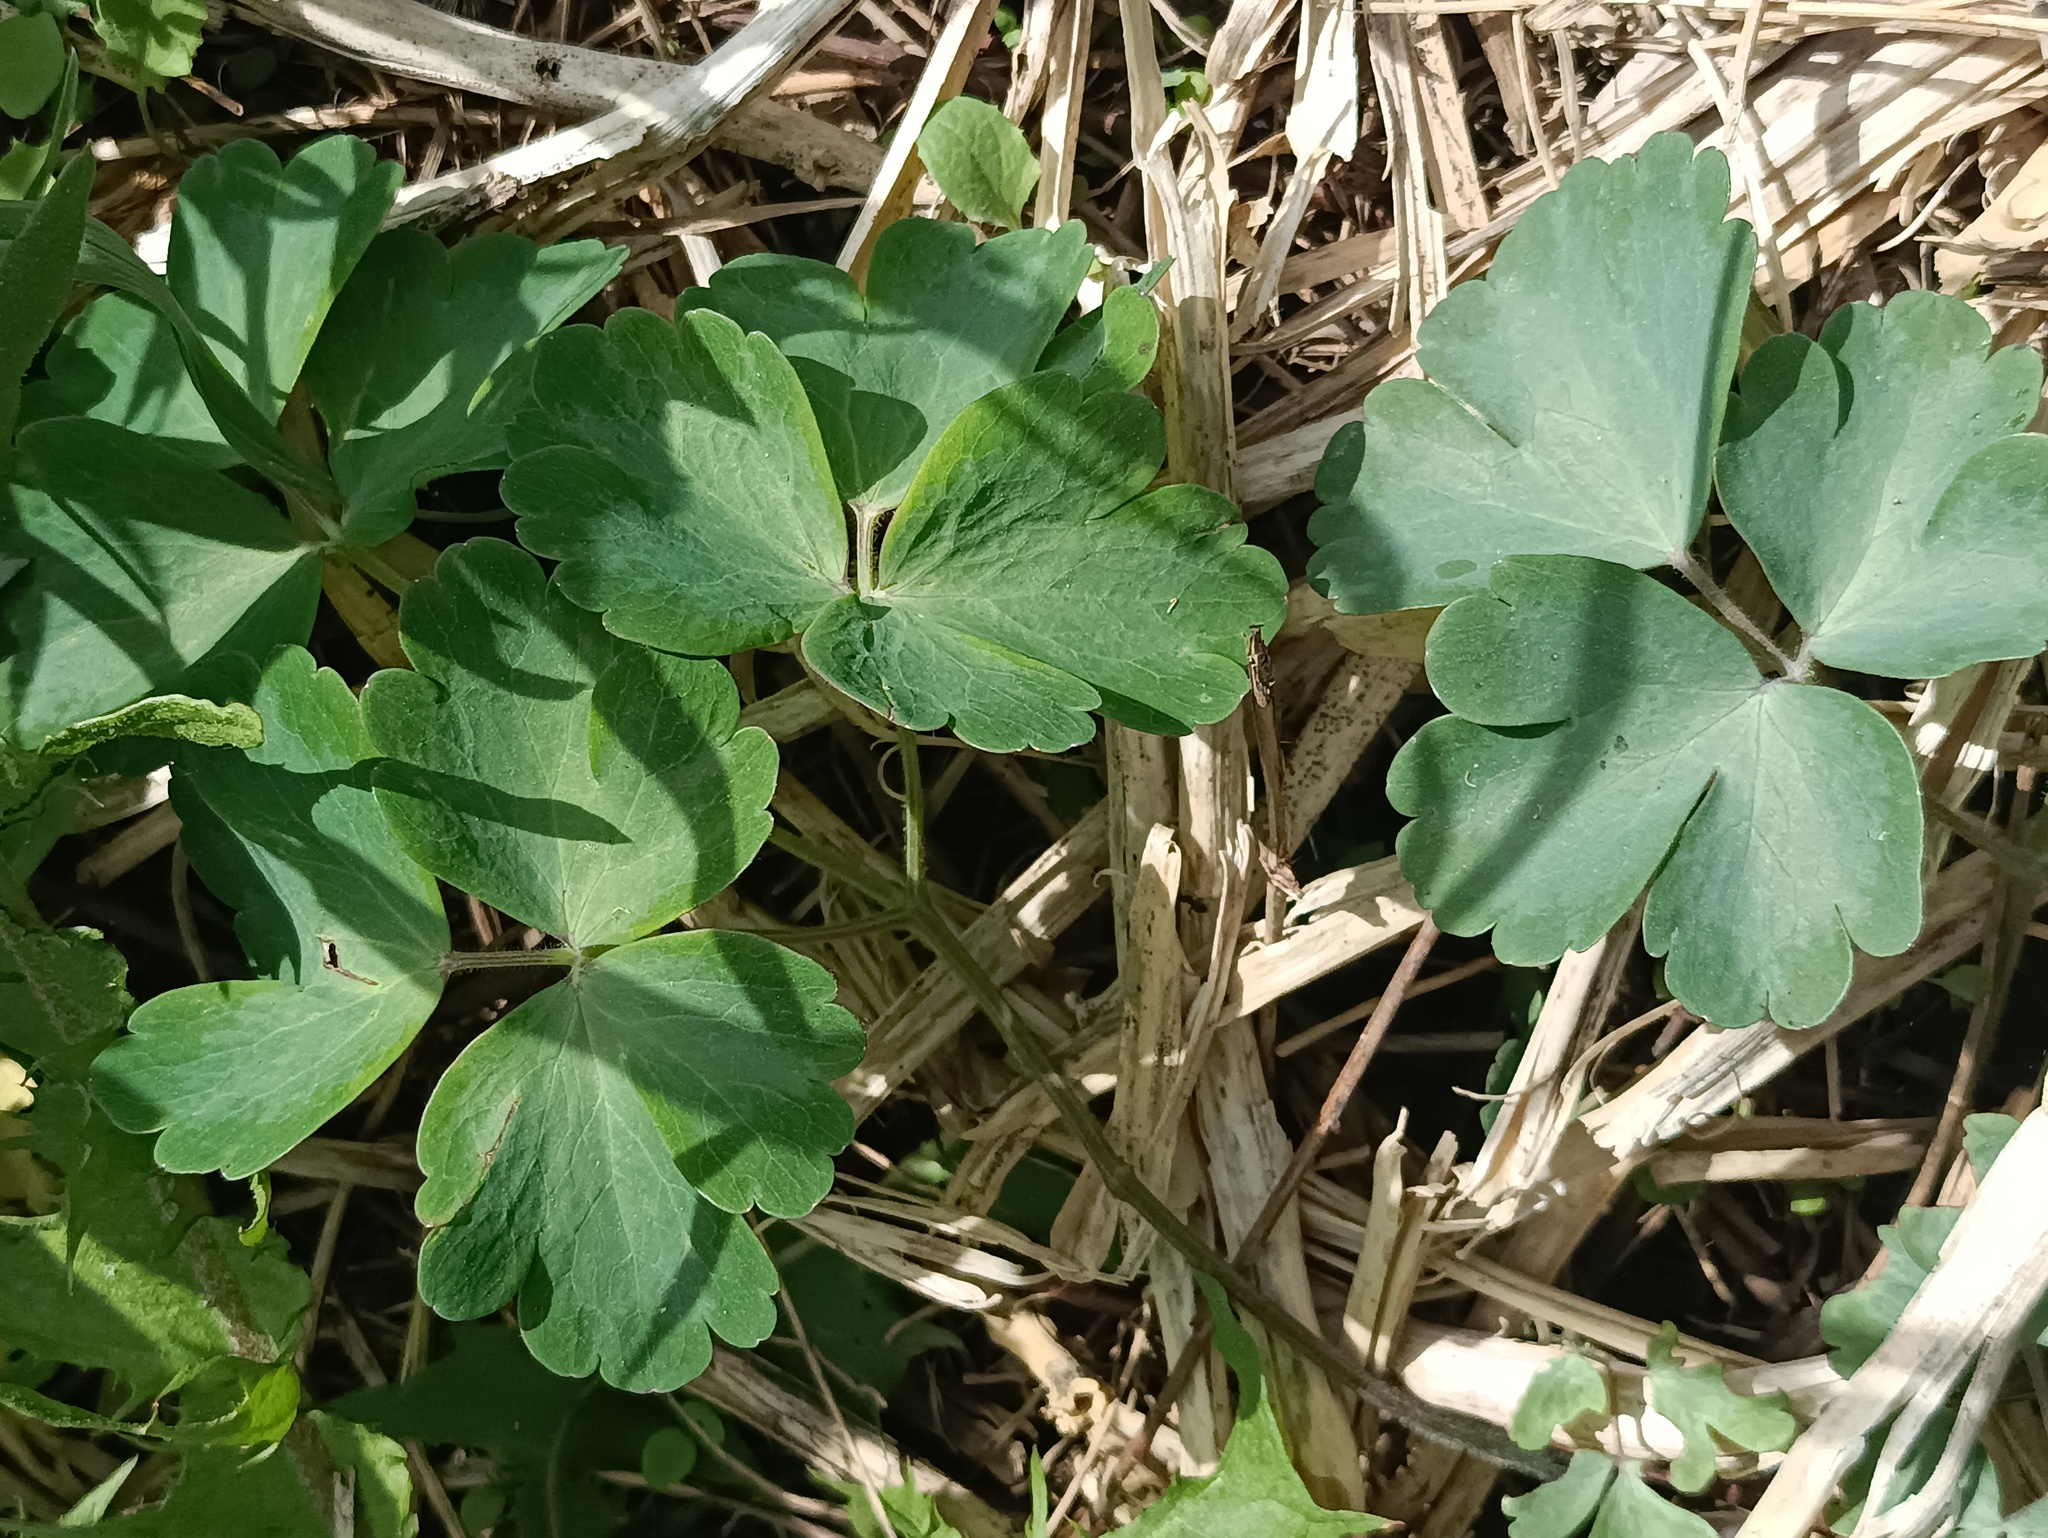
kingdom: Plantae
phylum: Tracheophyta
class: Magnoliopsida
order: Ranunculales
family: Ranunculaceae
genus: Aquilegia
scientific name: Aquilegia vulgaris
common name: Columbine
